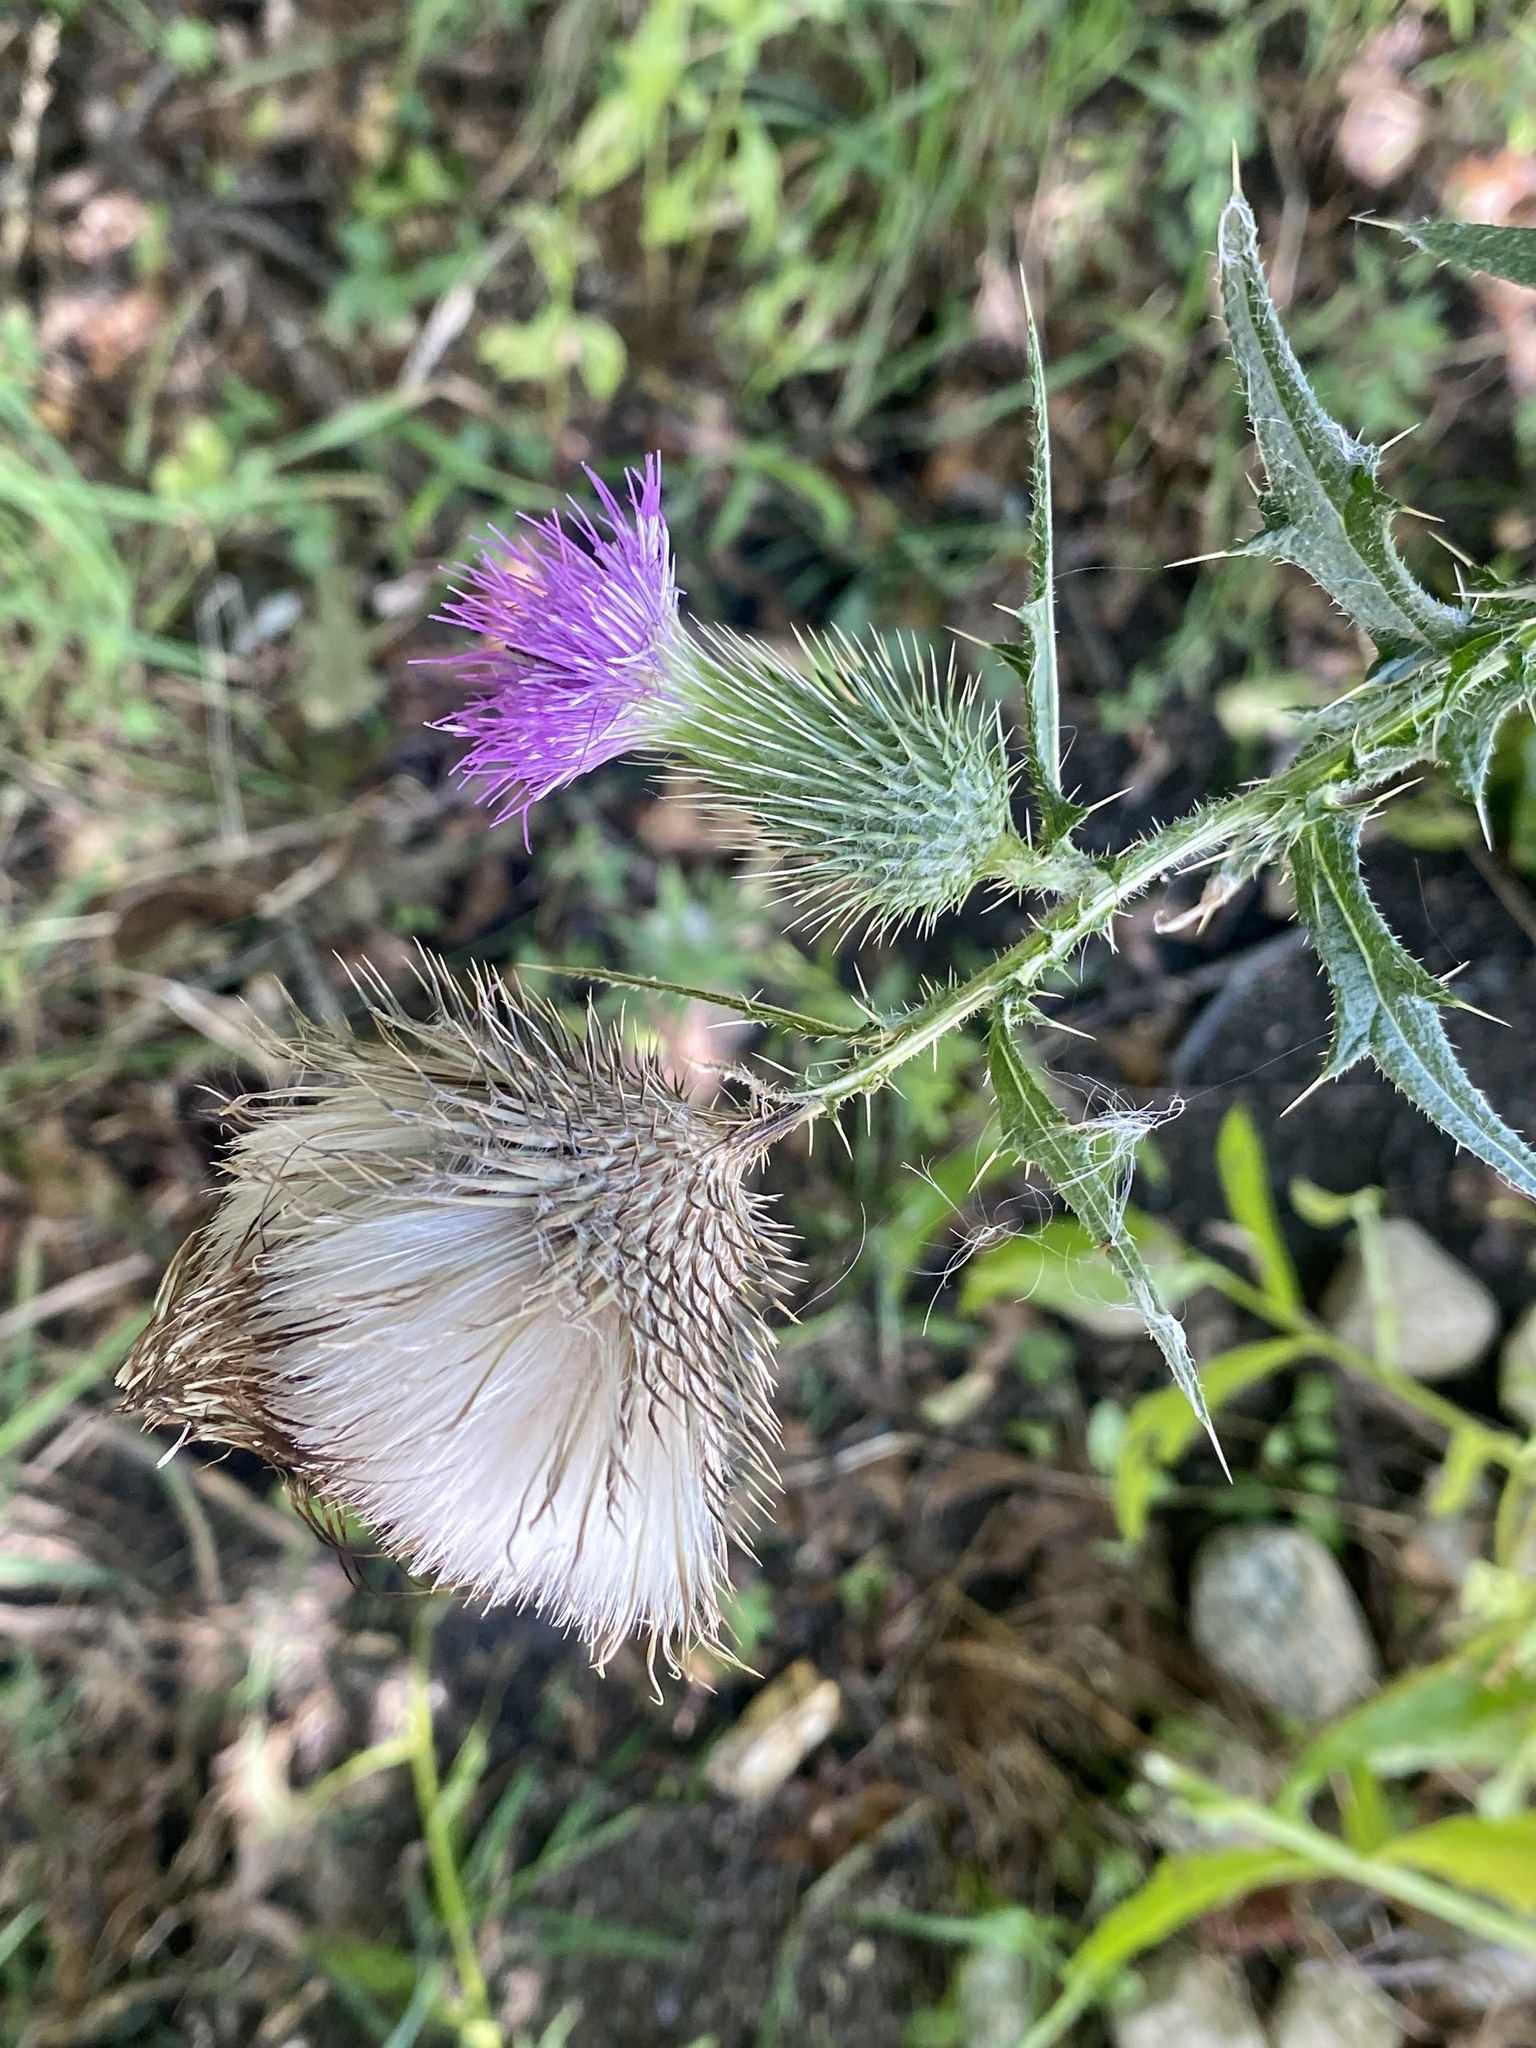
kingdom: Plantae
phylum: Tracheophyta
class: Magnoliopsida
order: Asterales
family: Asteraceae
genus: Cirsium
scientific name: Cirsium vulgare
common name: Bull thistle
